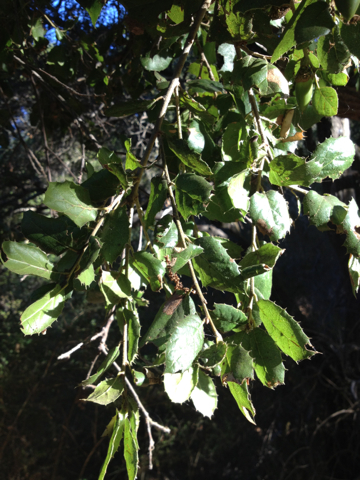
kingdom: Plantae
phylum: Tracheophyta
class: Magnoliopsida
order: Fagales
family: Fagaceae
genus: Quercus
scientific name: Quercus agrifolia
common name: California live oak
